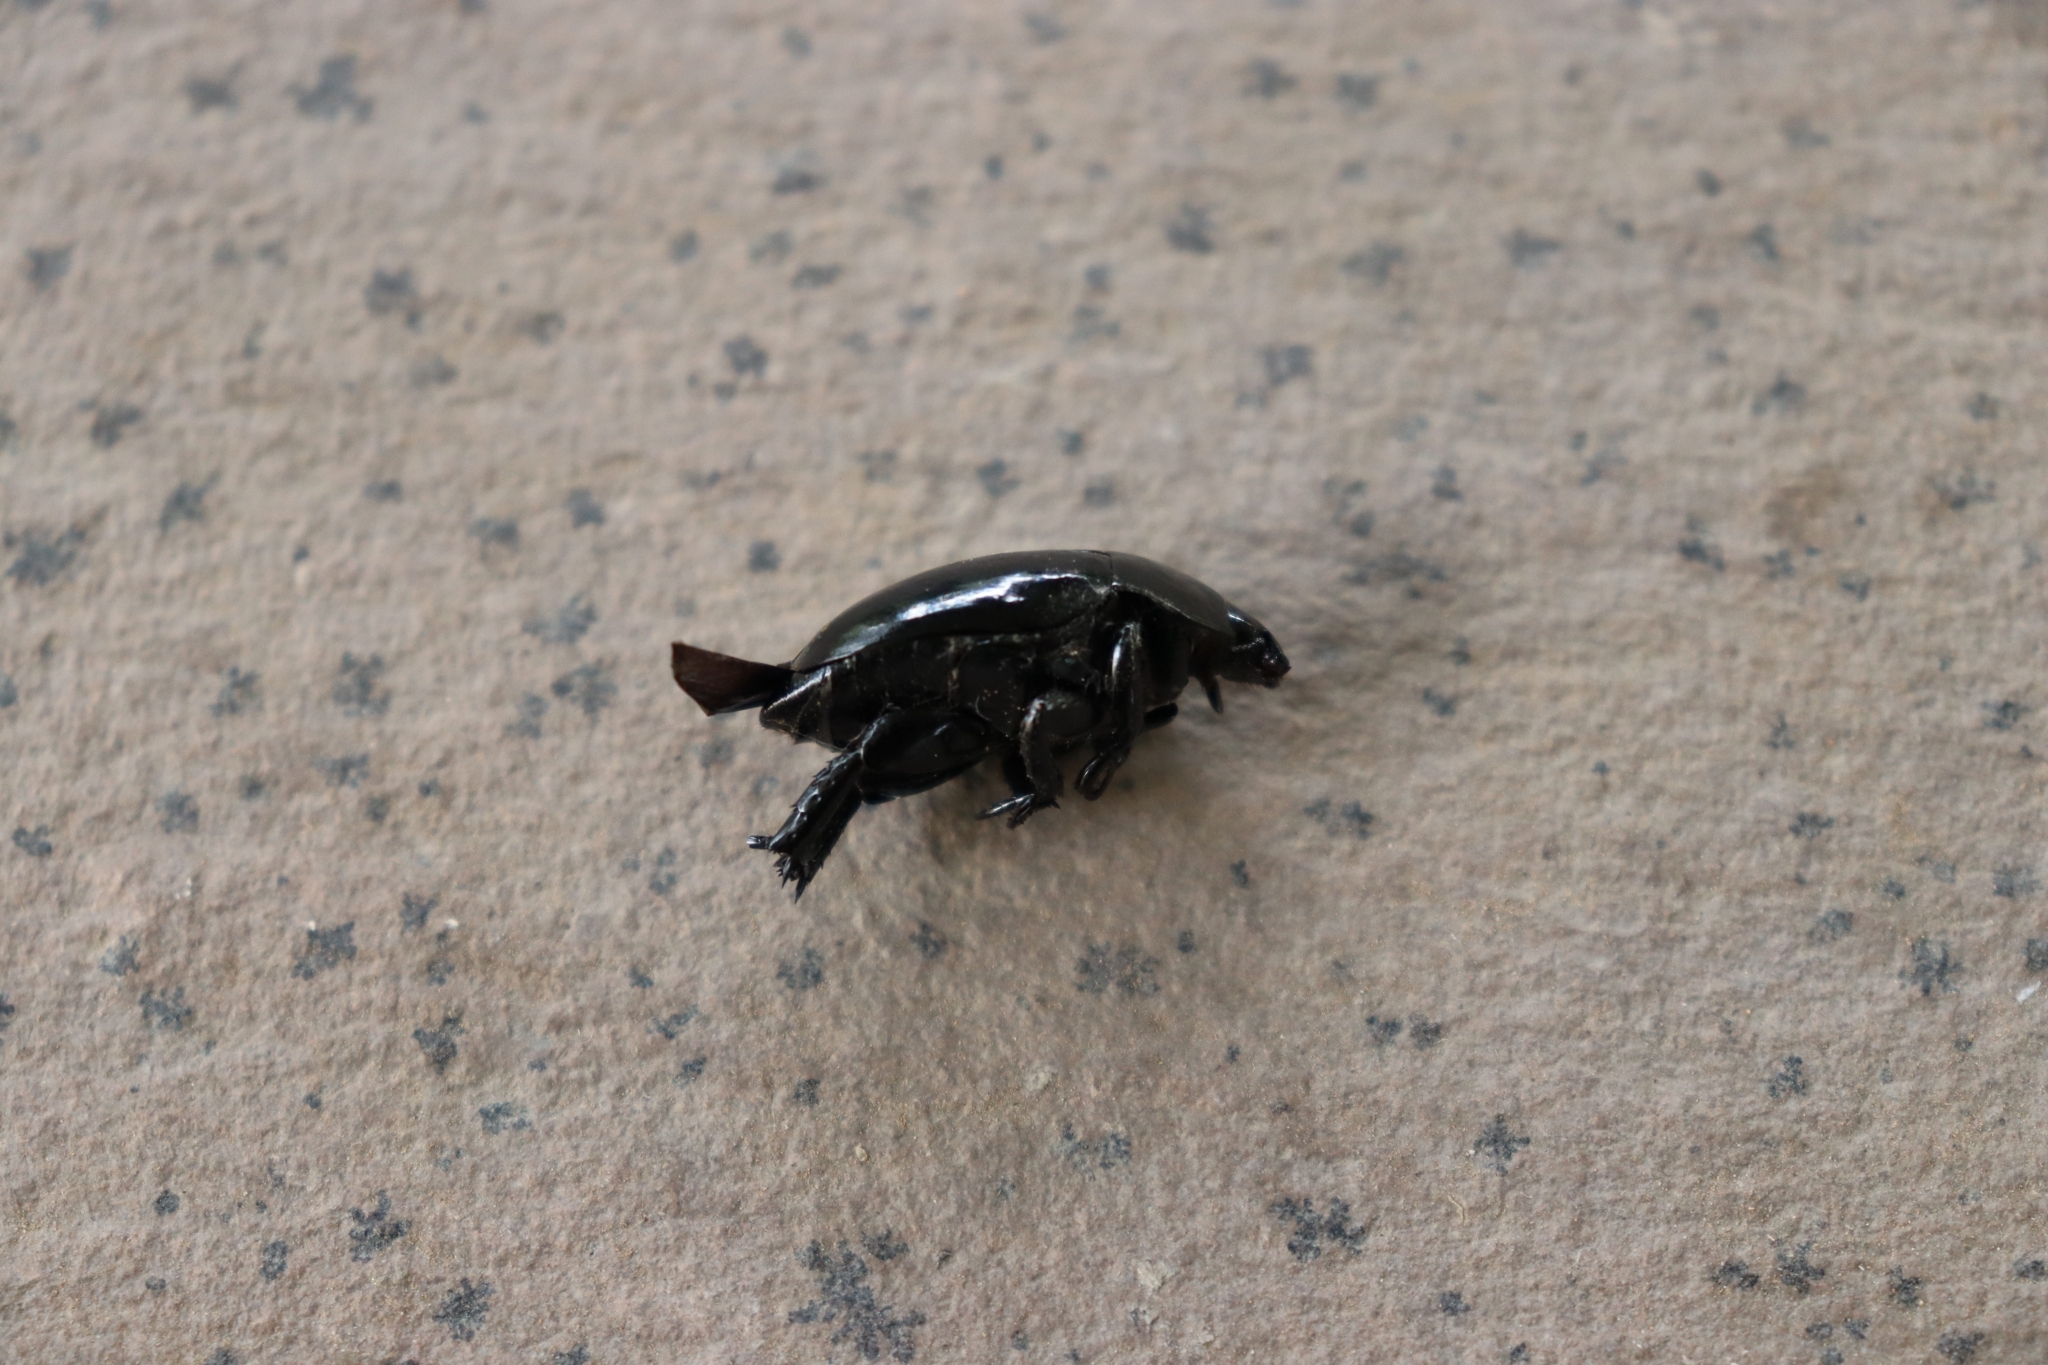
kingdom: Animalia
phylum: Arthropoda
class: Insecta
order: Coleoptera
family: Scarabaeidae
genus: Macraspis
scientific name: Macraspis aterrima
